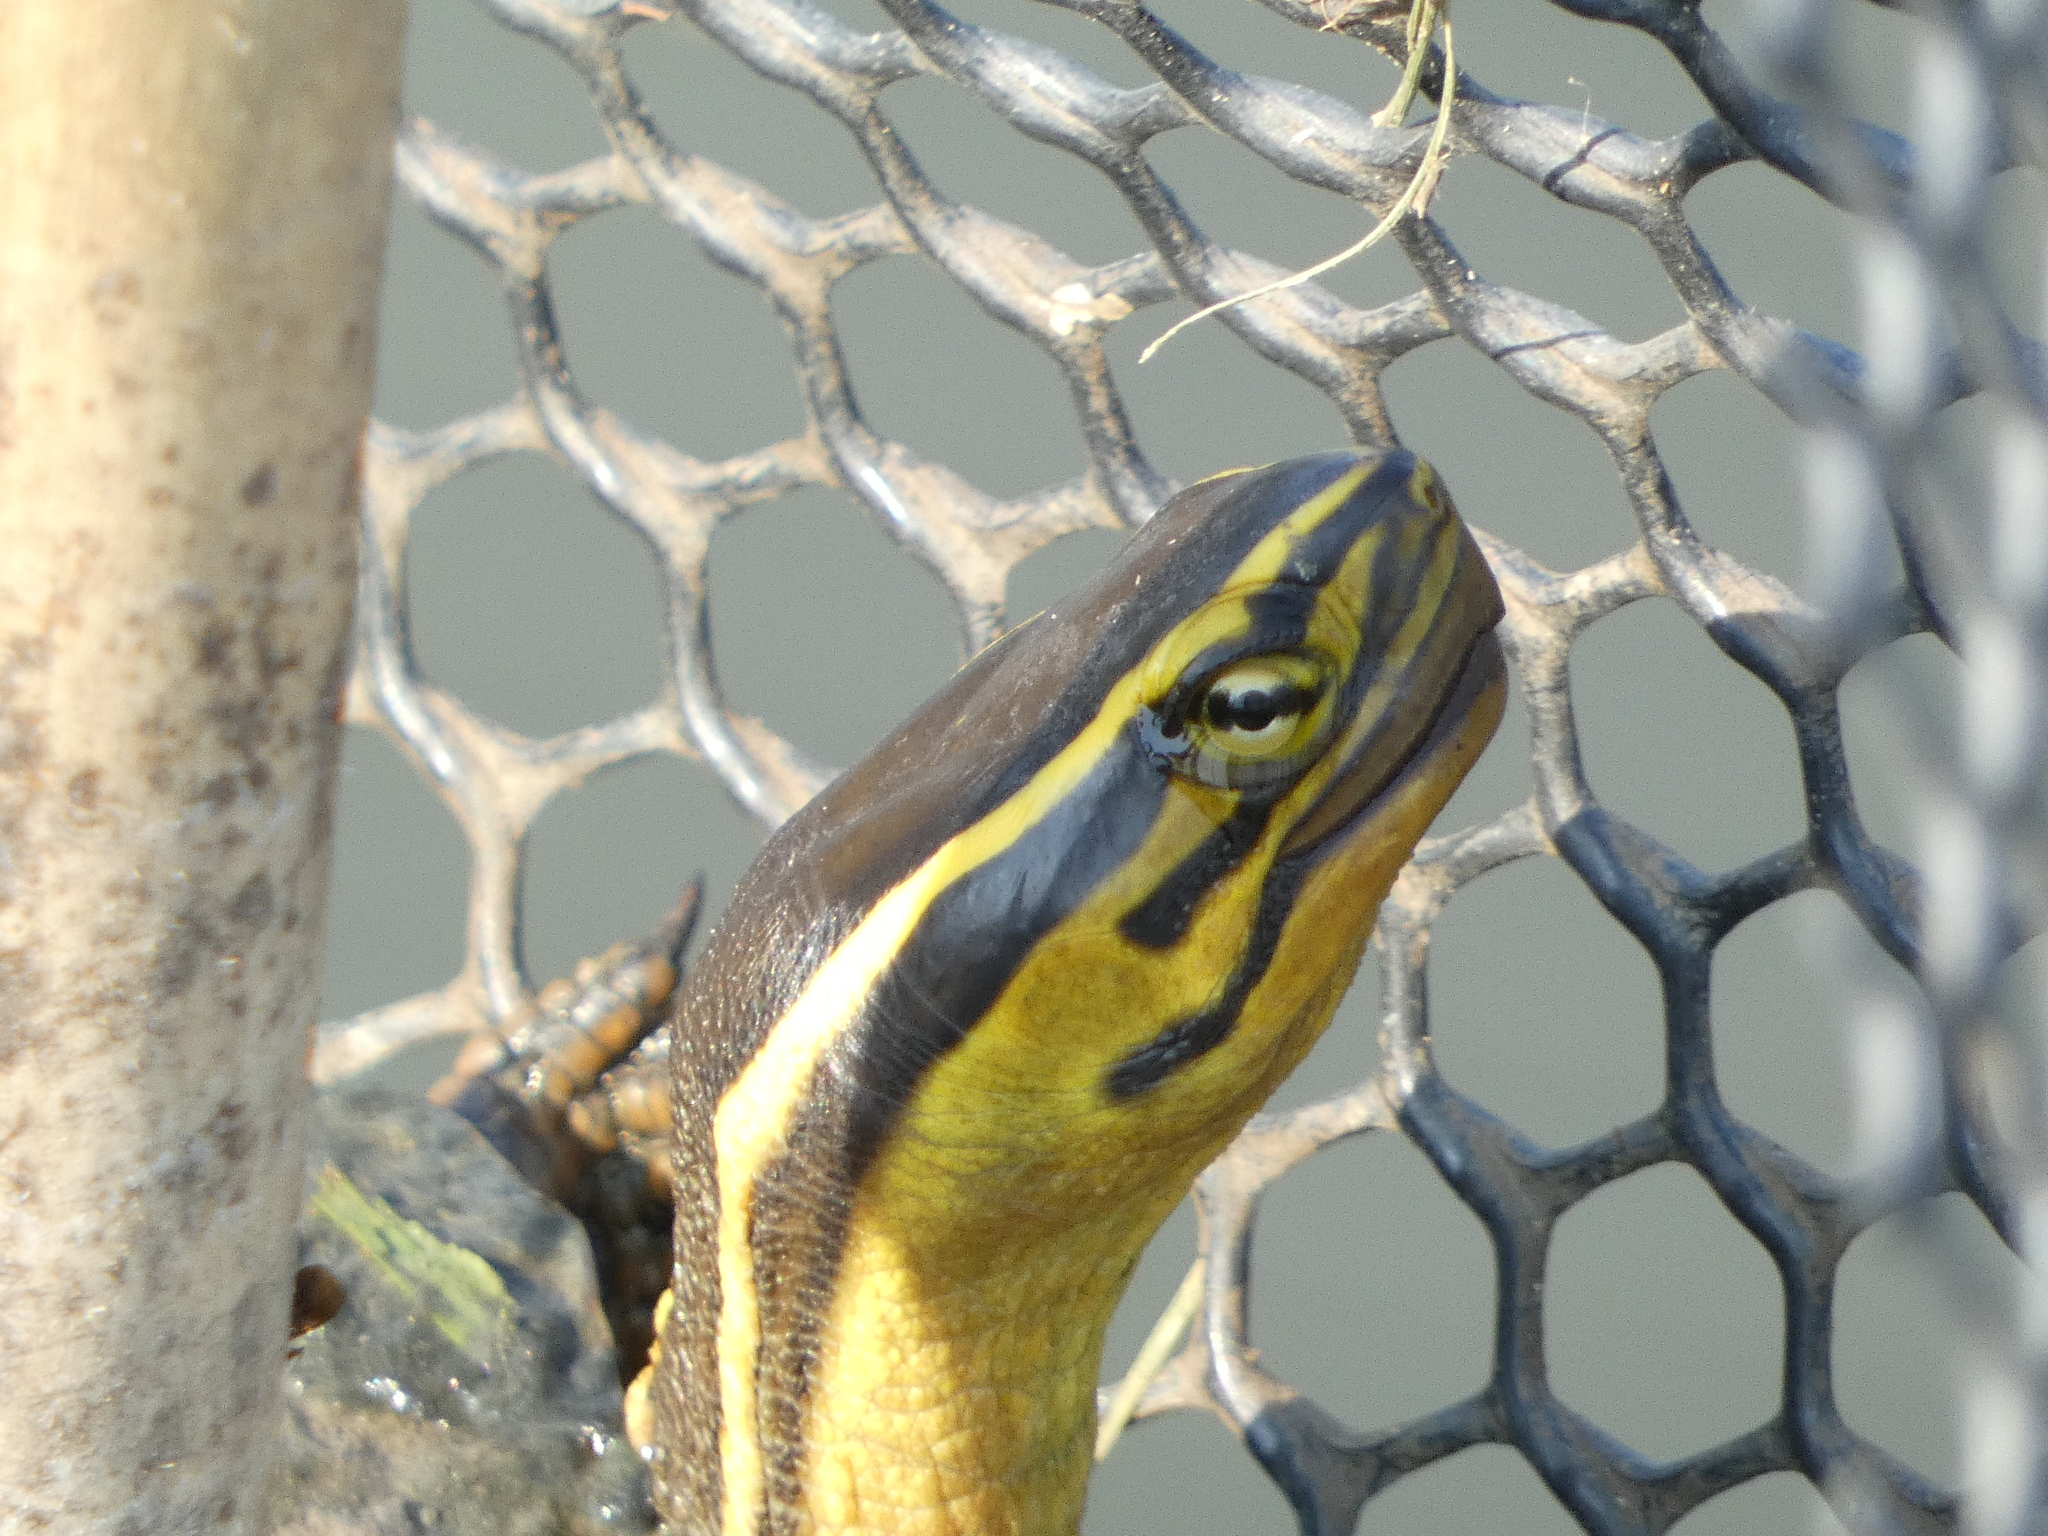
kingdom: Animalia
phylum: Chordata
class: Testudines
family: Geoemydidae
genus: Cuora
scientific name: Cuora
